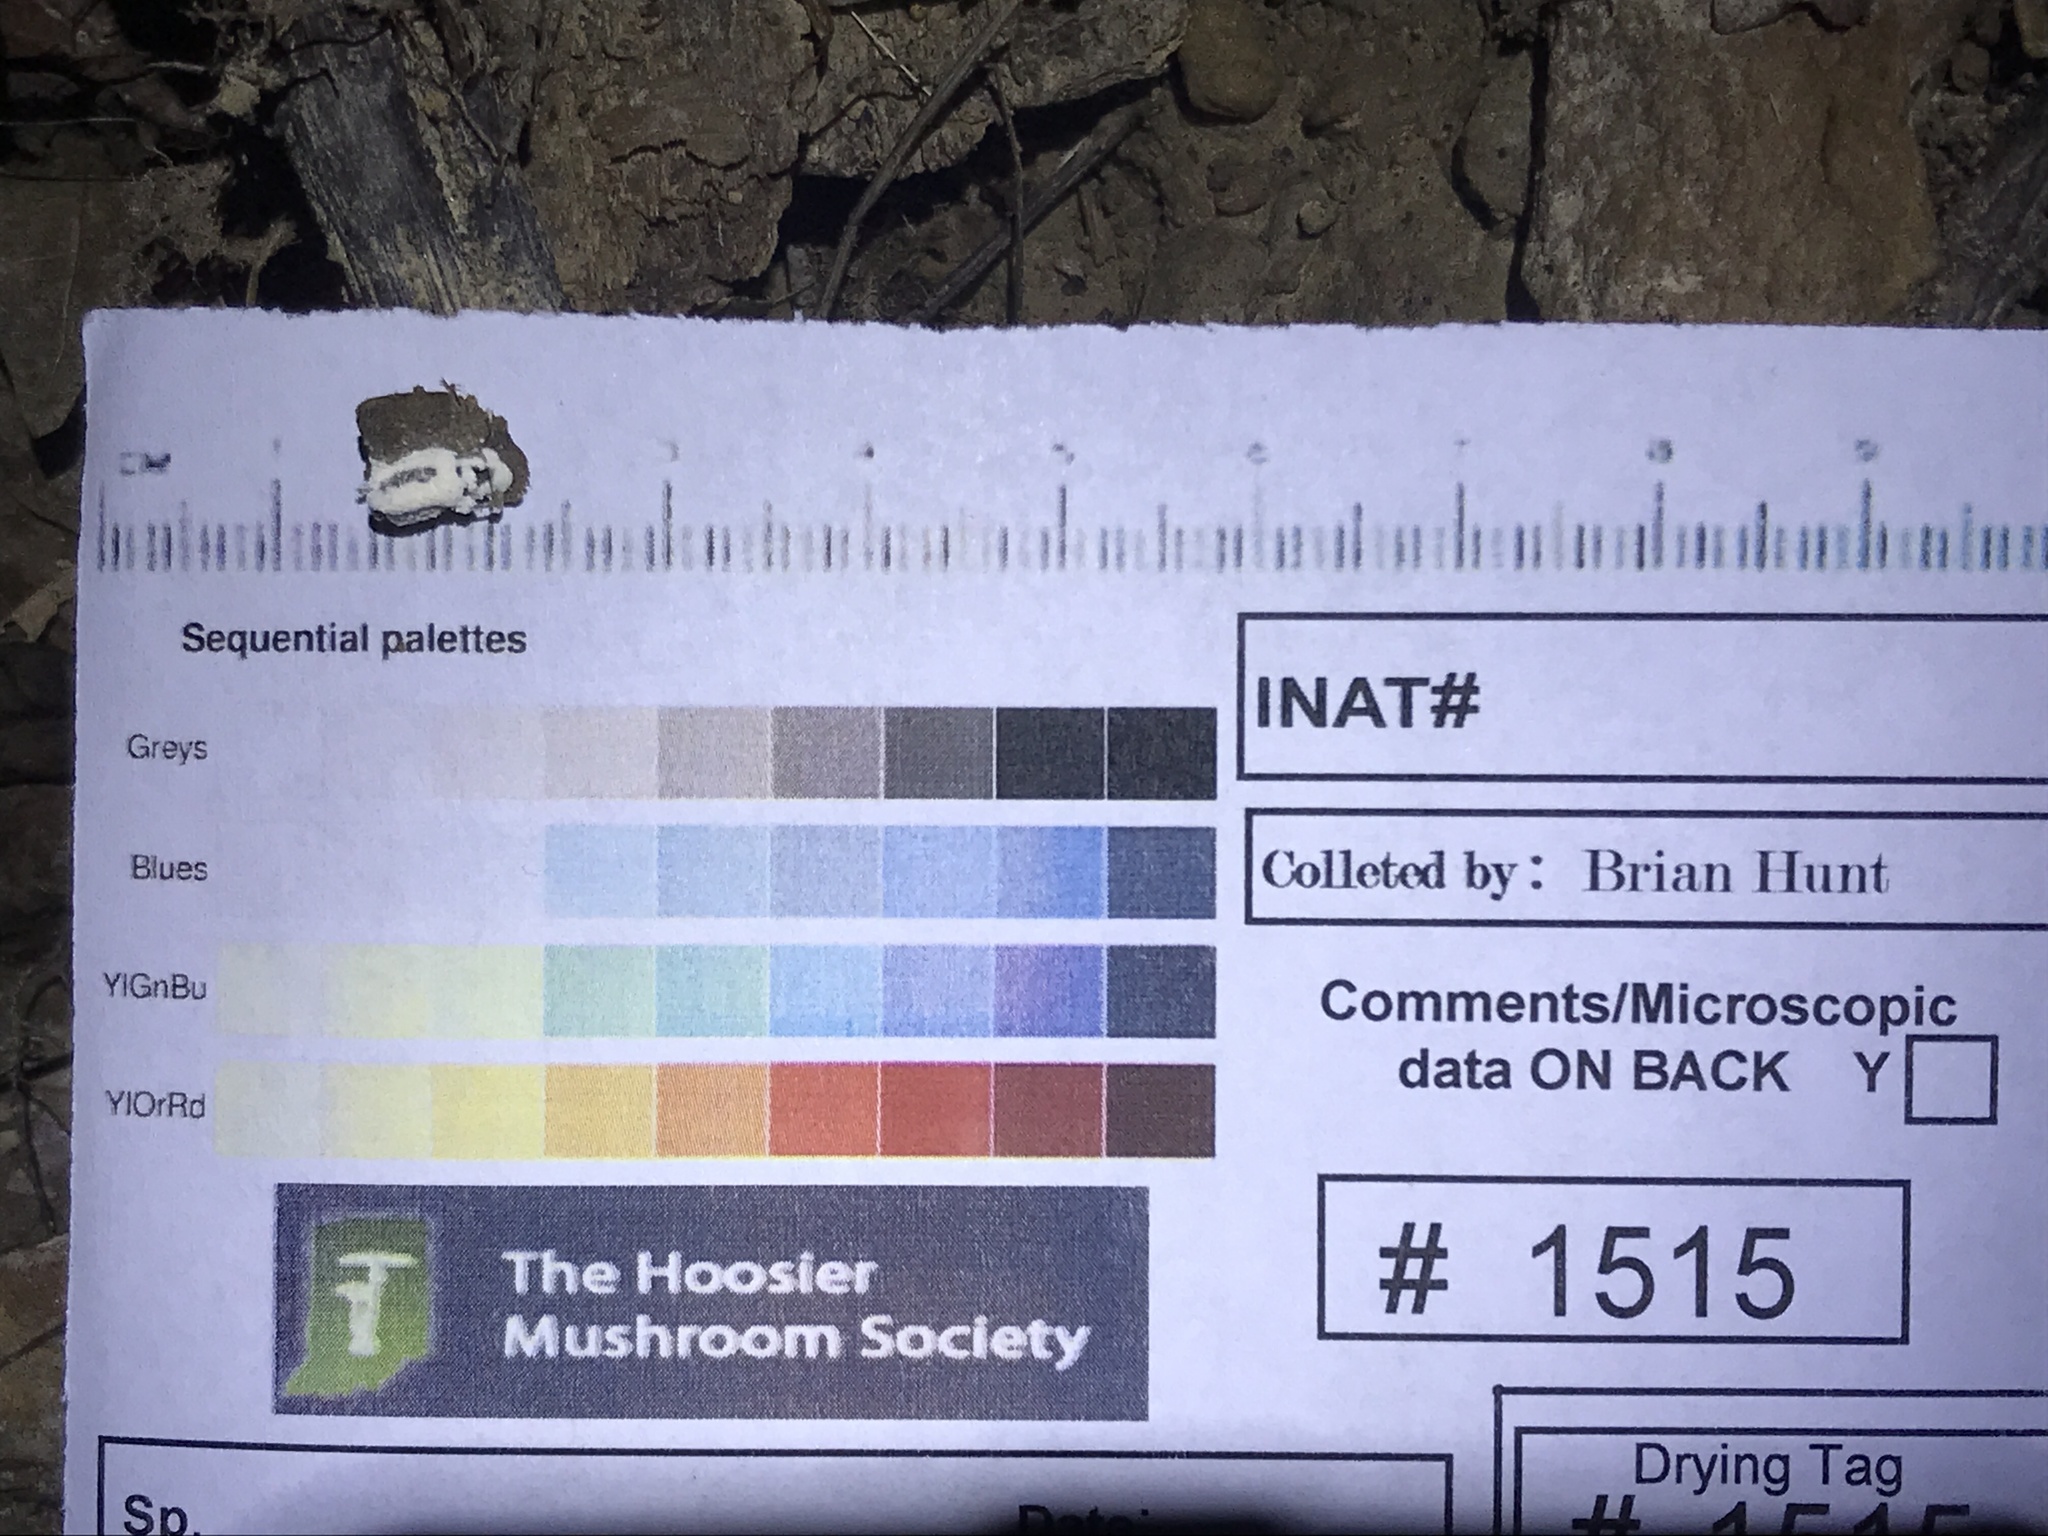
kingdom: Fungi
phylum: Ascomycota
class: Sordariomycetes
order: Hypocreales
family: Cordycipitaceae
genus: Beauveria
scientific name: Beauveria brongniartii
